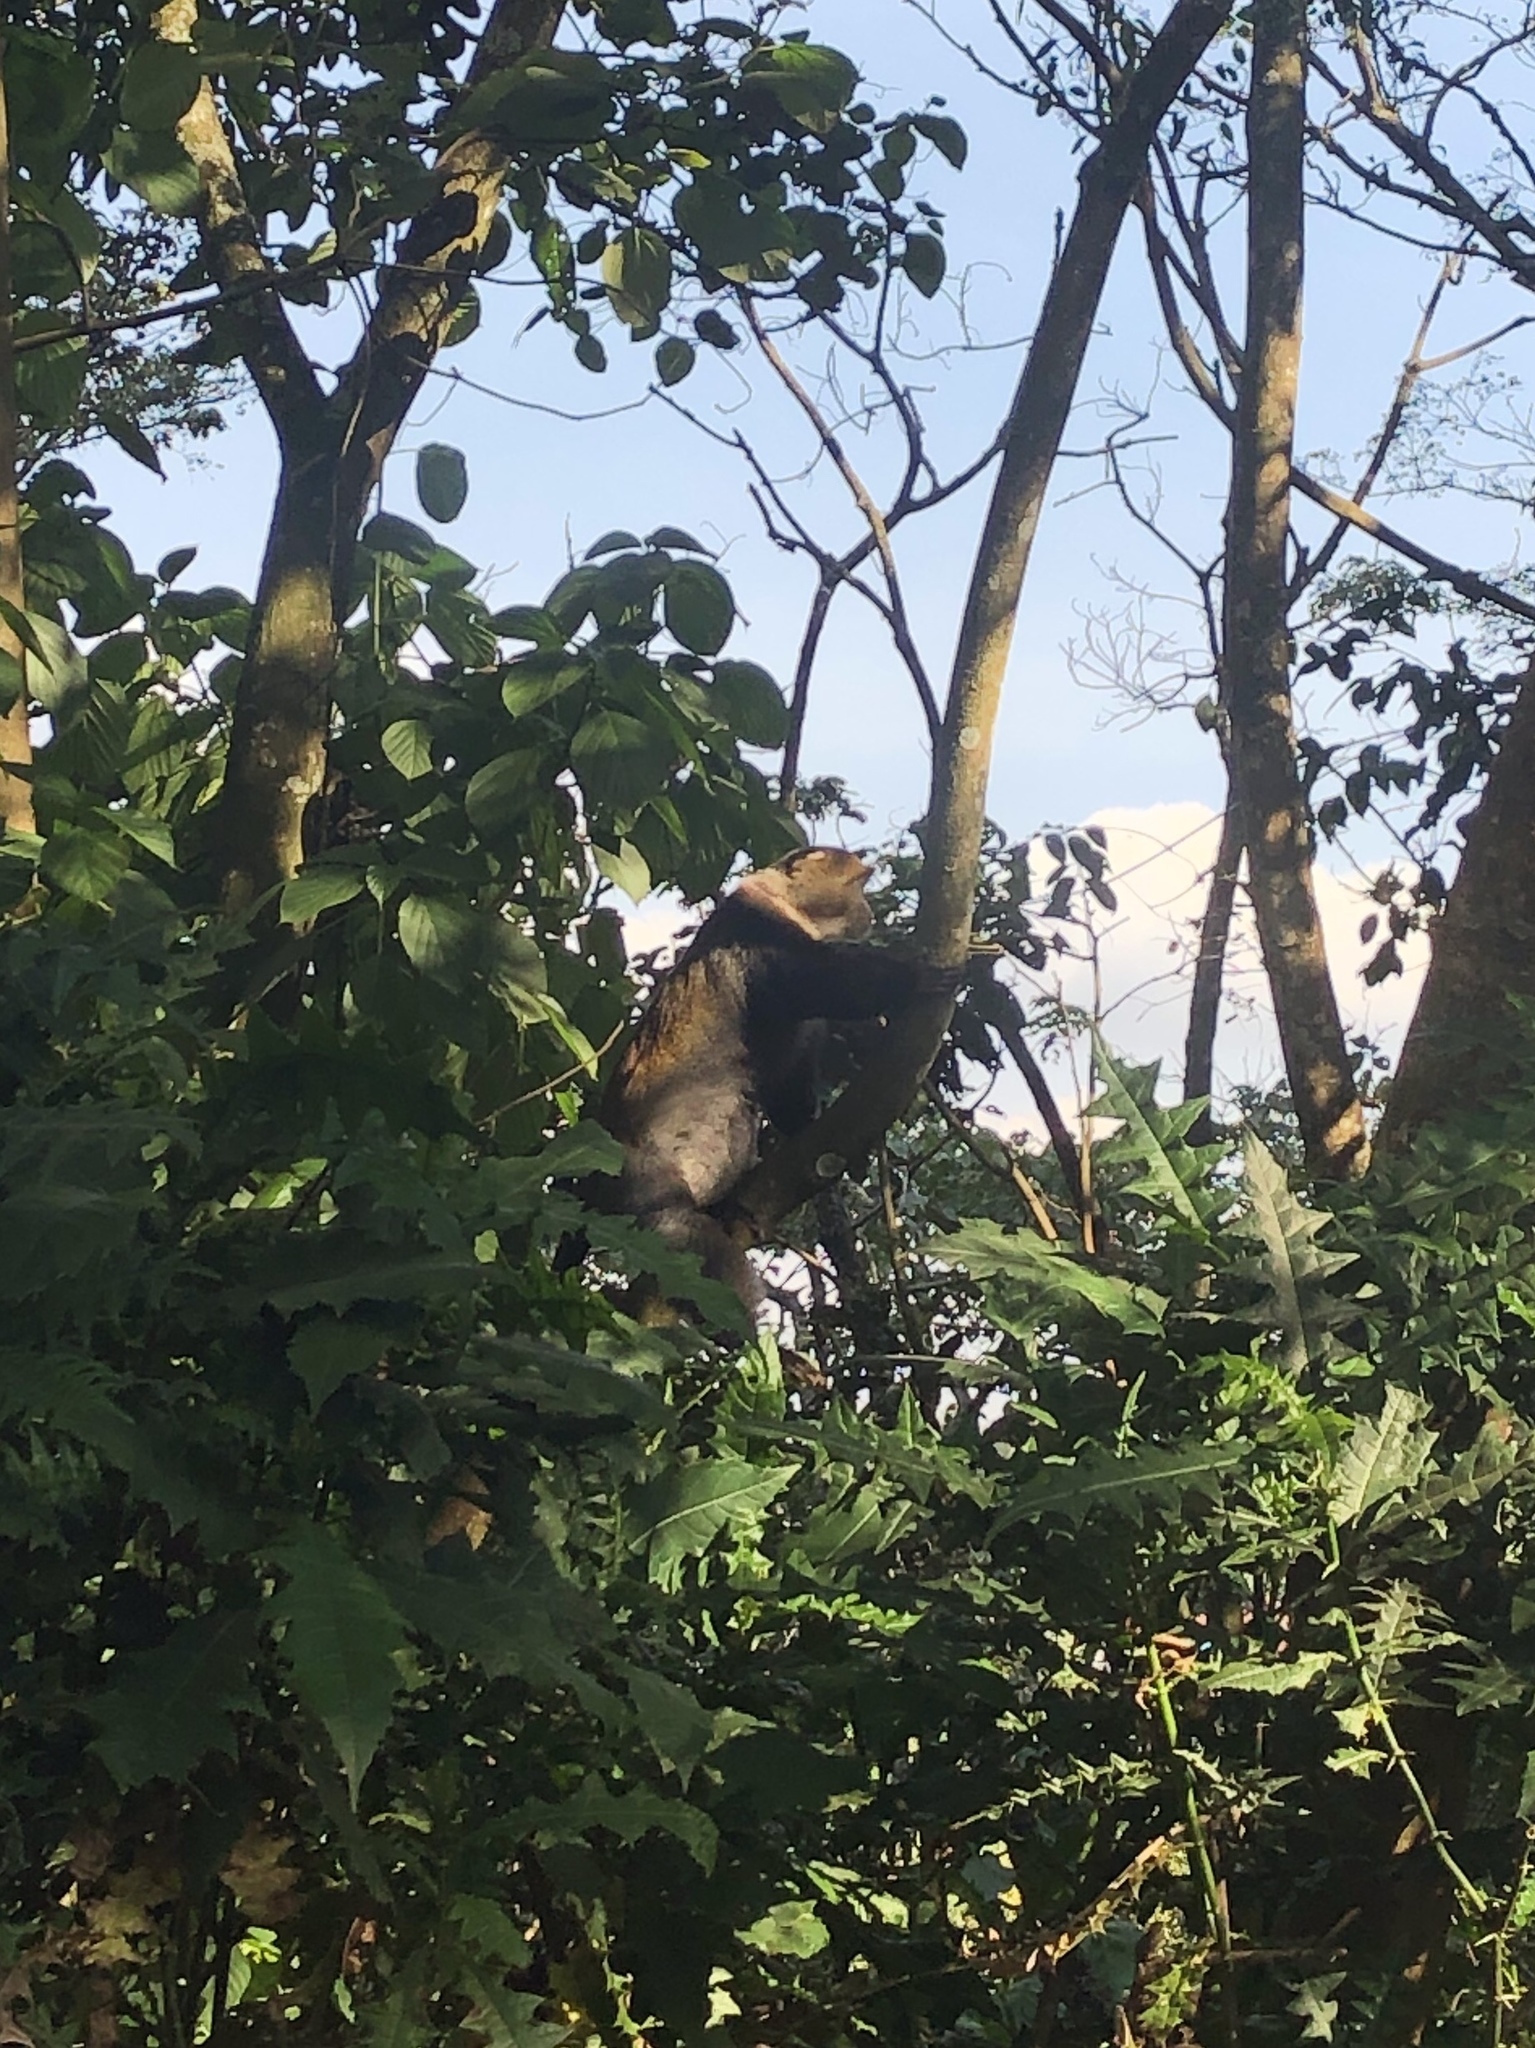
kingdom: Animalia
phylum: Chordata
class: Mammalia
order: Primates
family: Cercopithecidae
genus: Cercopithecus
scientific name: Cercopithecus mitis
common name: Blue monkey
